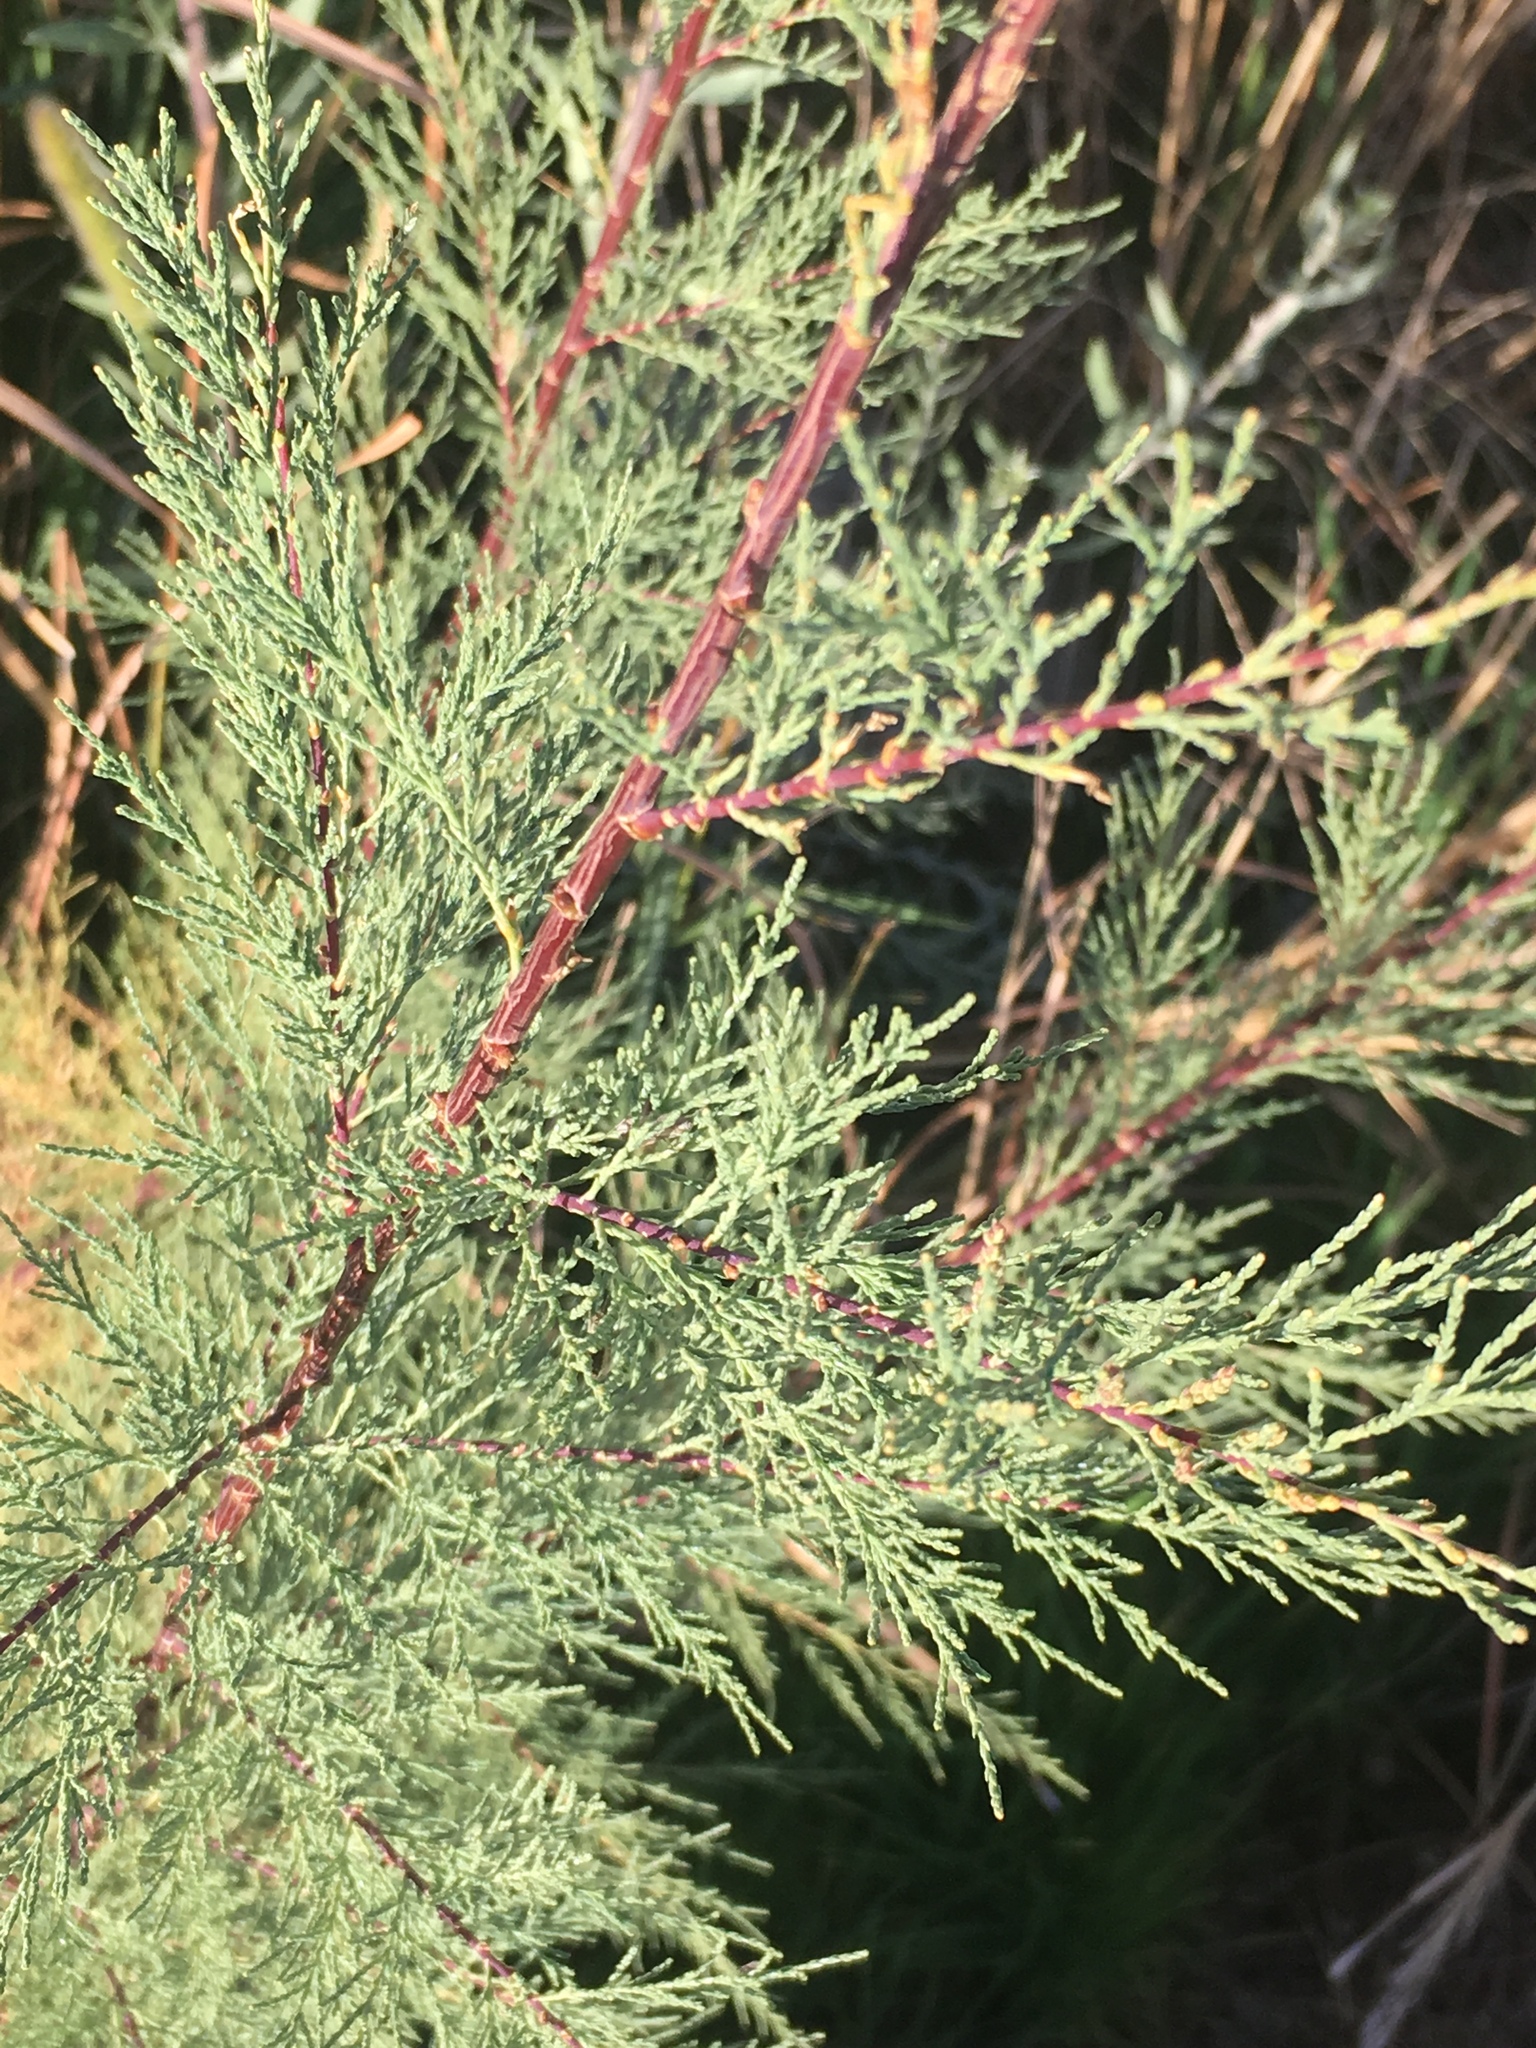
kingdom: Plantae
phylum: Tracheophyta
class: Magnoliopsida
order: Caryophyllales
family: Tamaricaceae
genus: Tamarix
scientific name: Tamarix
